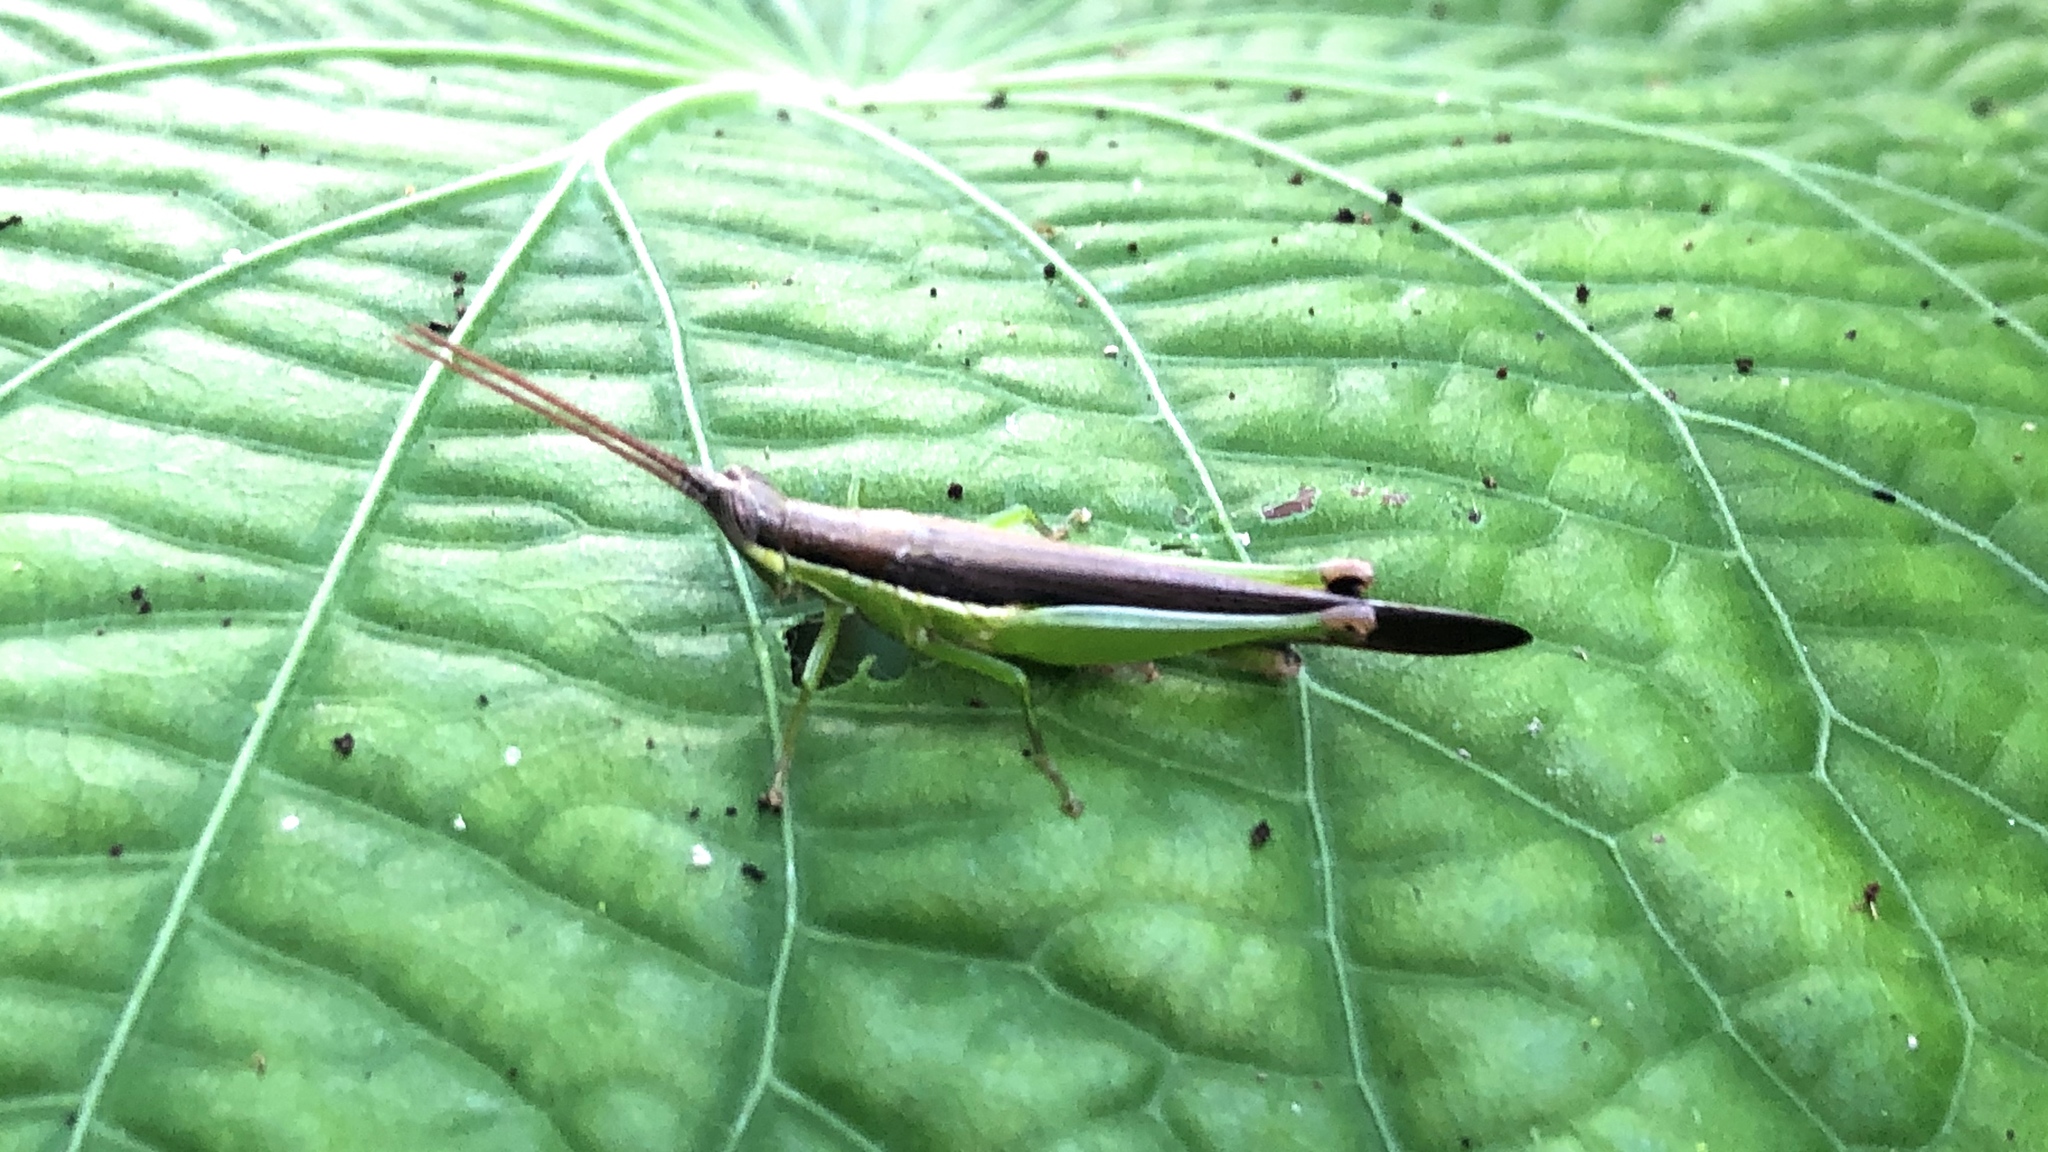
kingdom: Animalia
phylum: Arthropoda
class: Insecta
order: Orthoptera
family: Acrididae
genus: Stenopola
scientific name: Stenopola dorsalis
